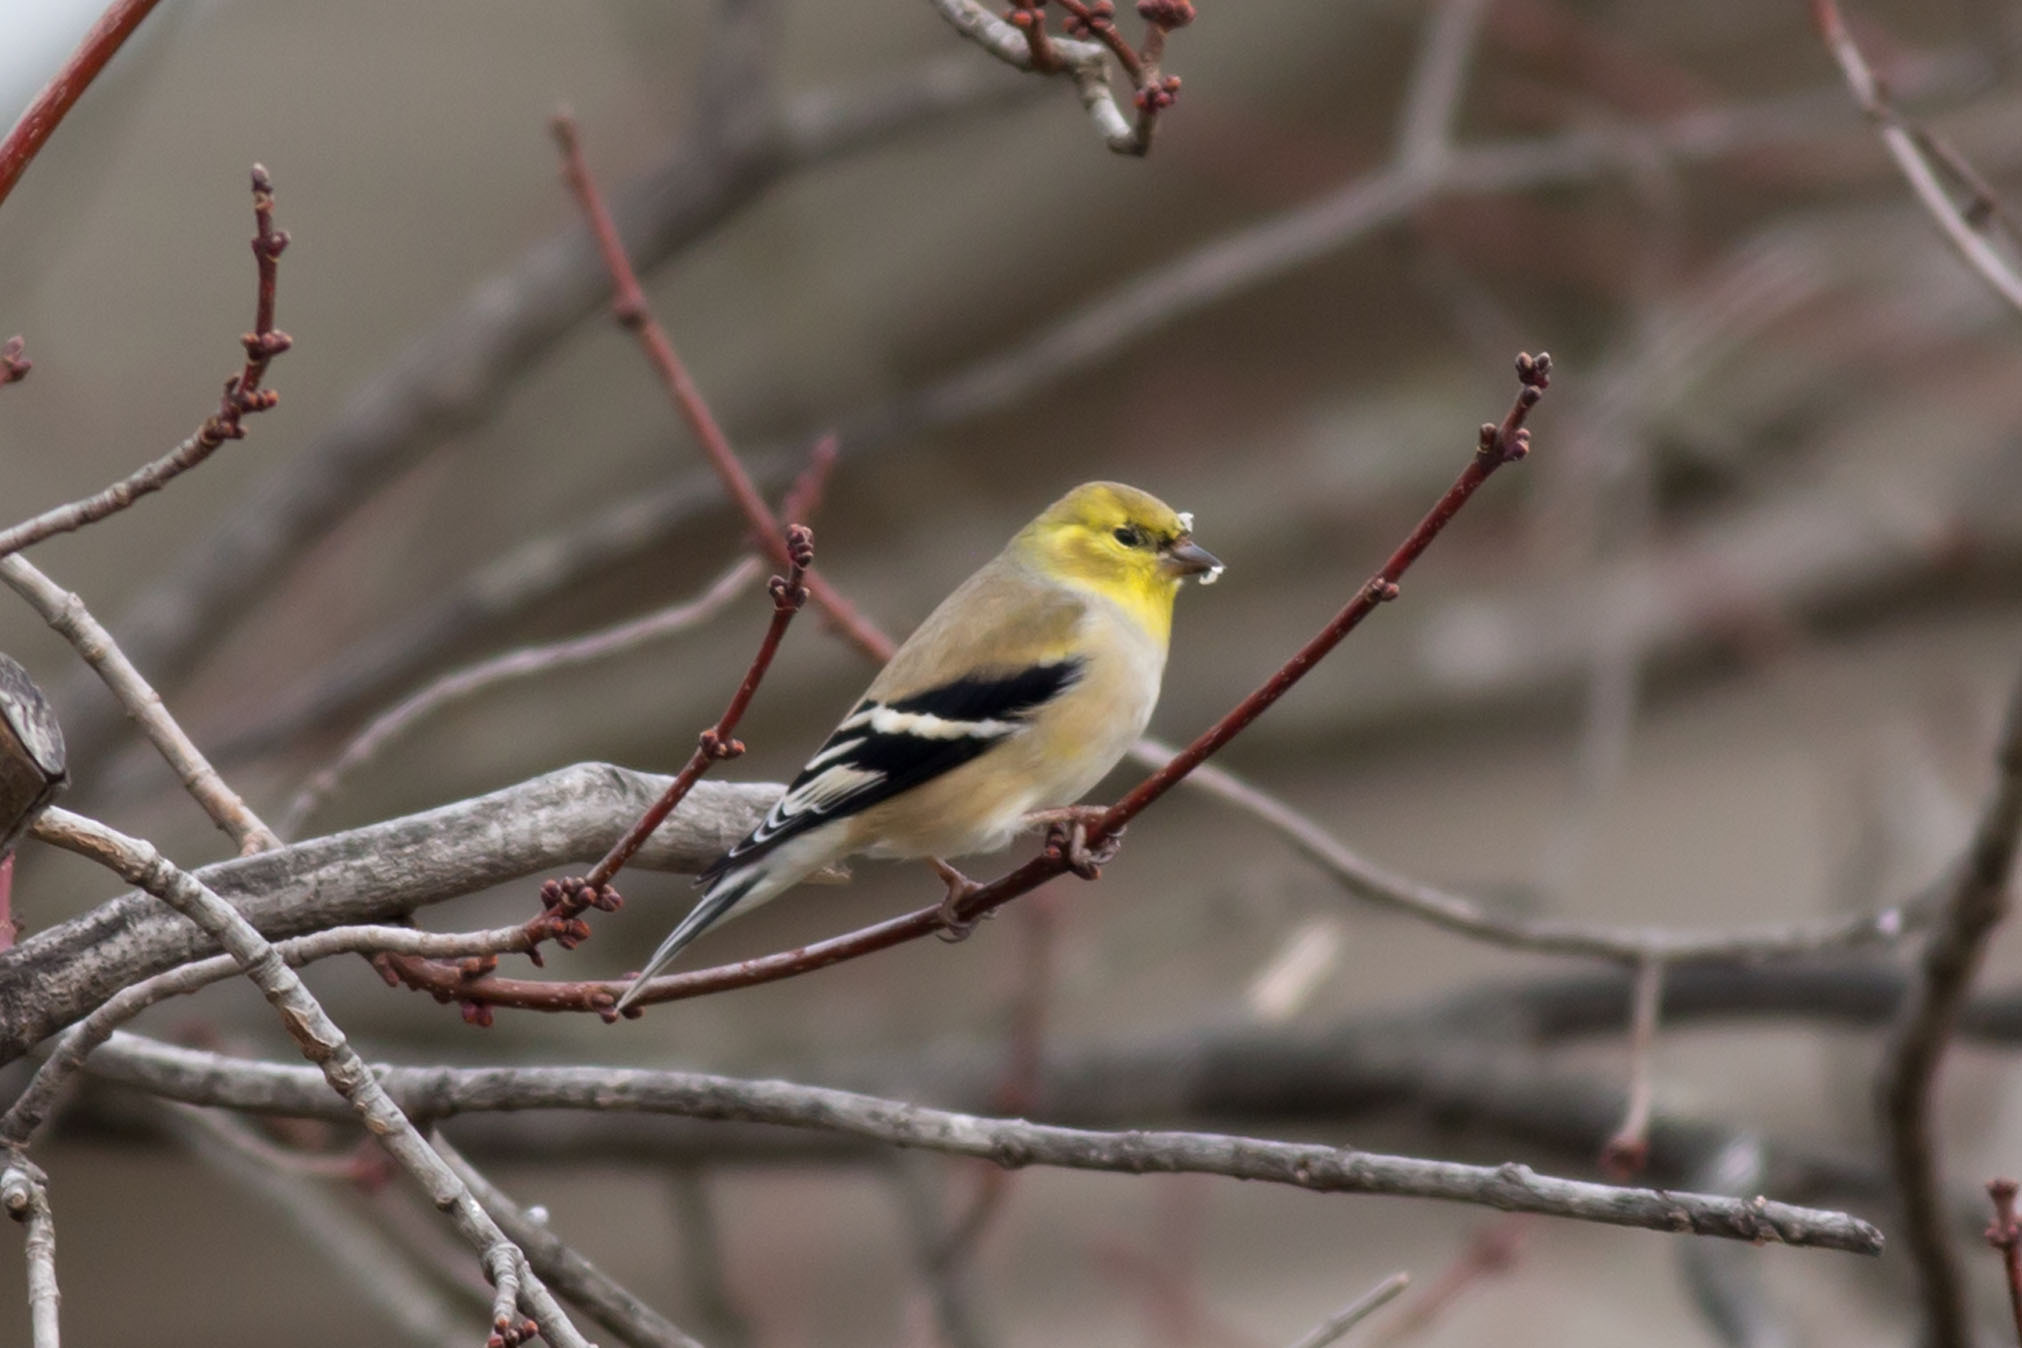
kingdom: Animalia
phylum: Chordata
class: Aves
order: Passeriformes
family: Fringillidae
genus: Spinus
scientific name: Spinus tristis
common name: American goldfinch
